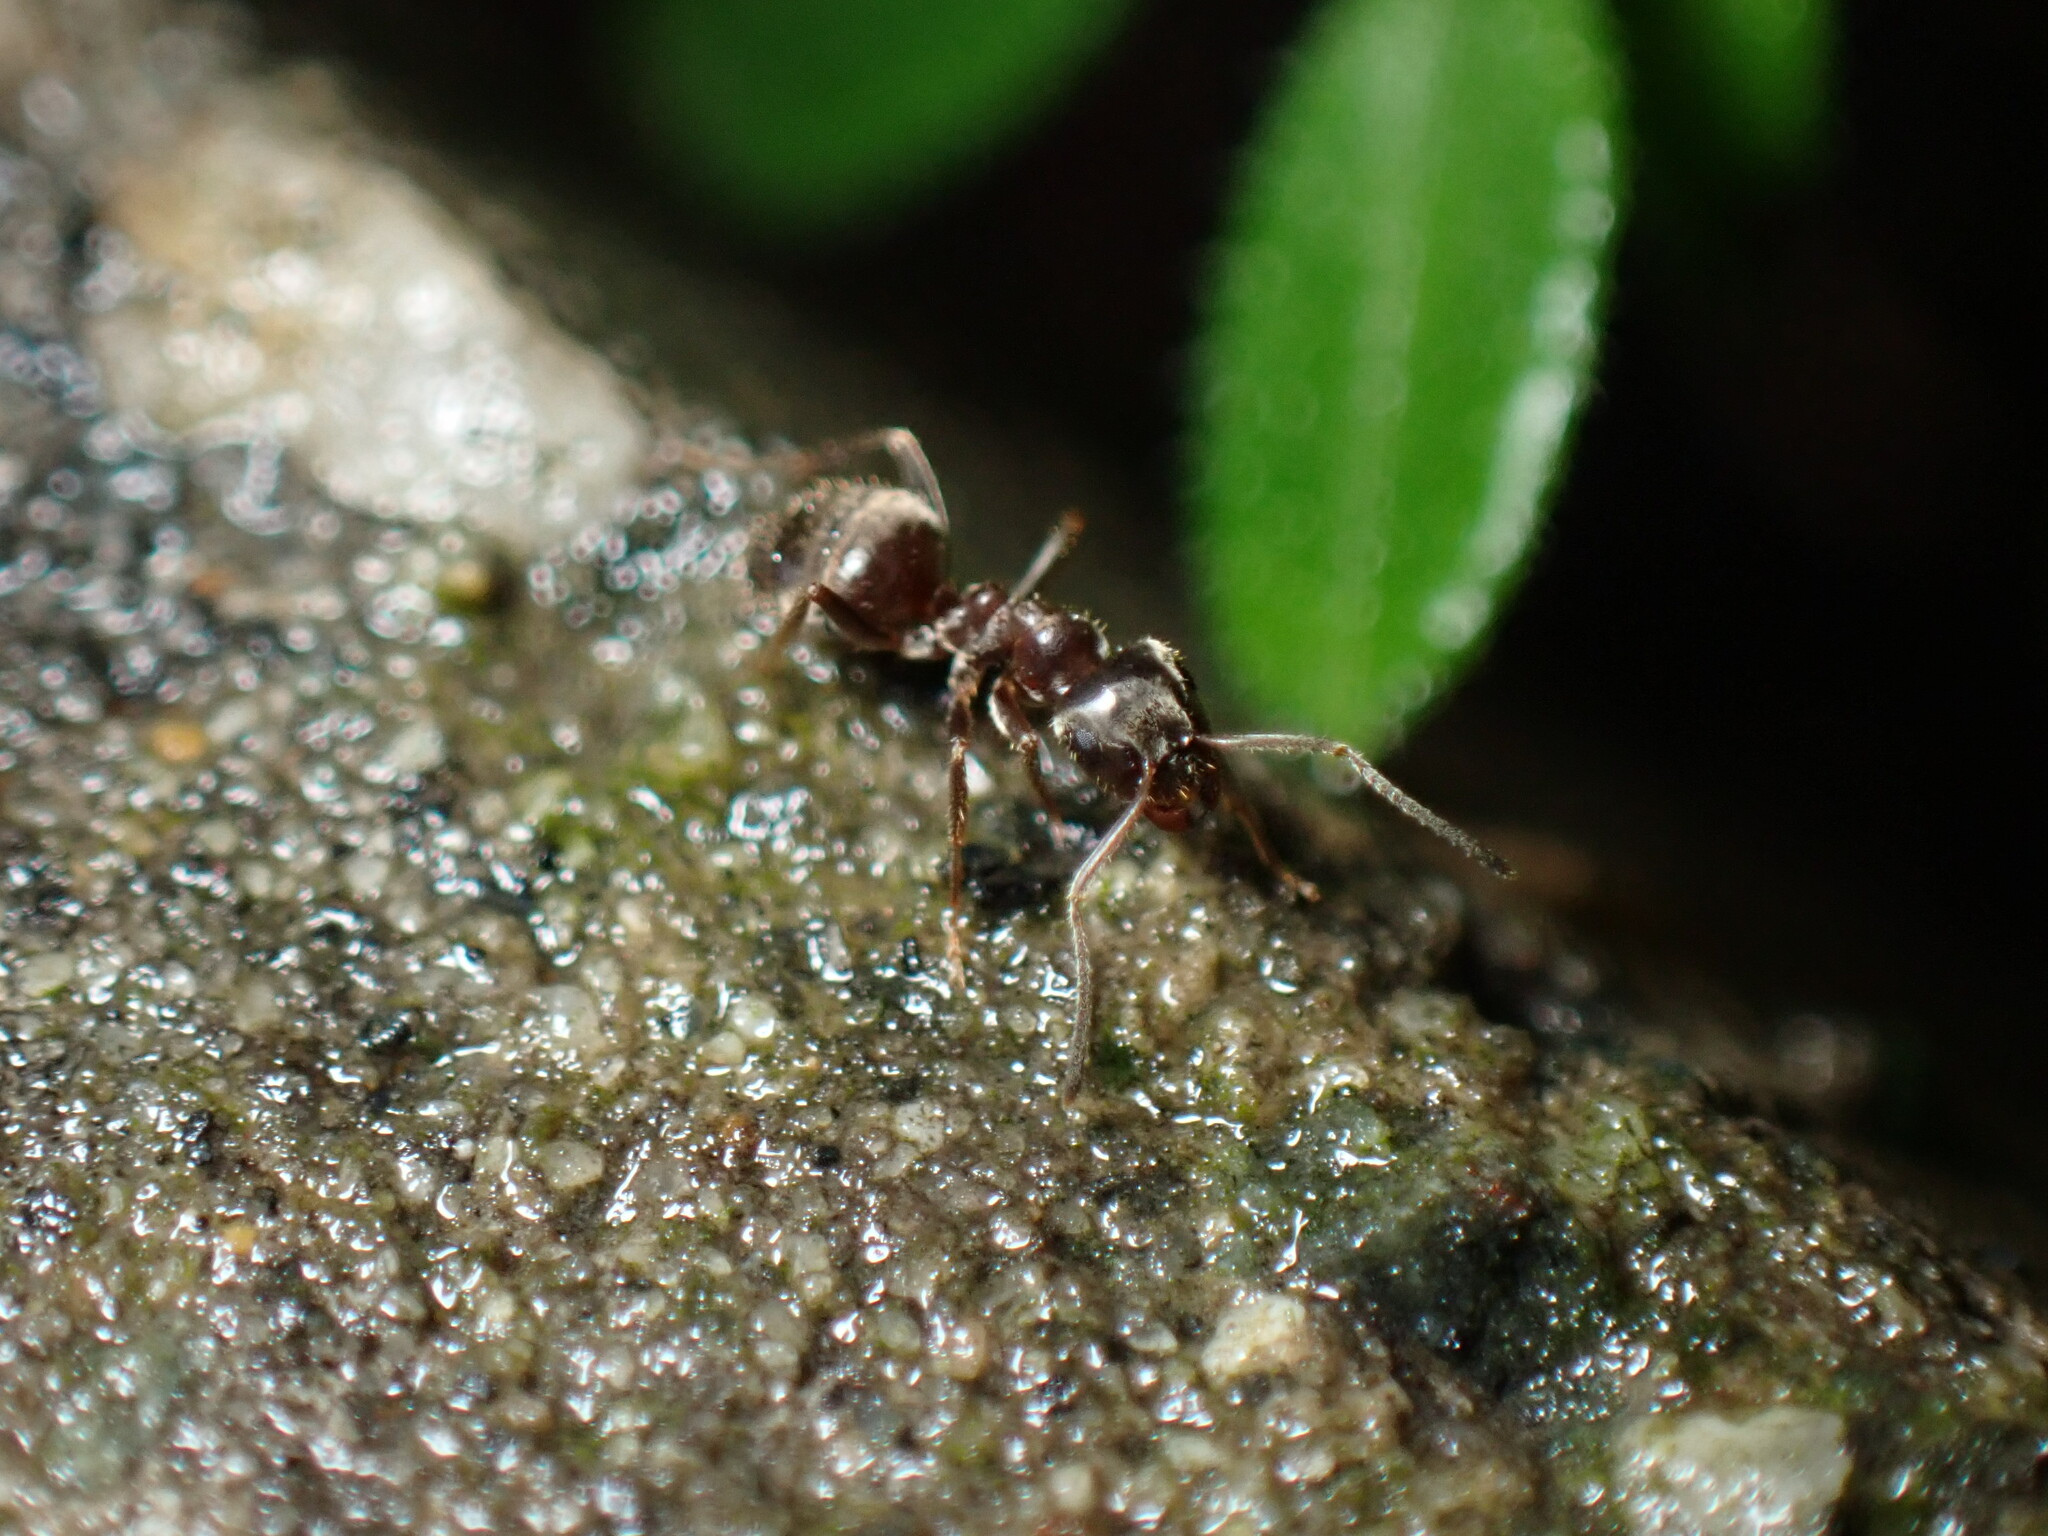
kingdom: Animalia
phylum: Arthropoda
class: Insecta
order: Hymenoptera
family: Formicidae
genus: Lasius
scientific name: Lasius niger
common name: Small black ant
